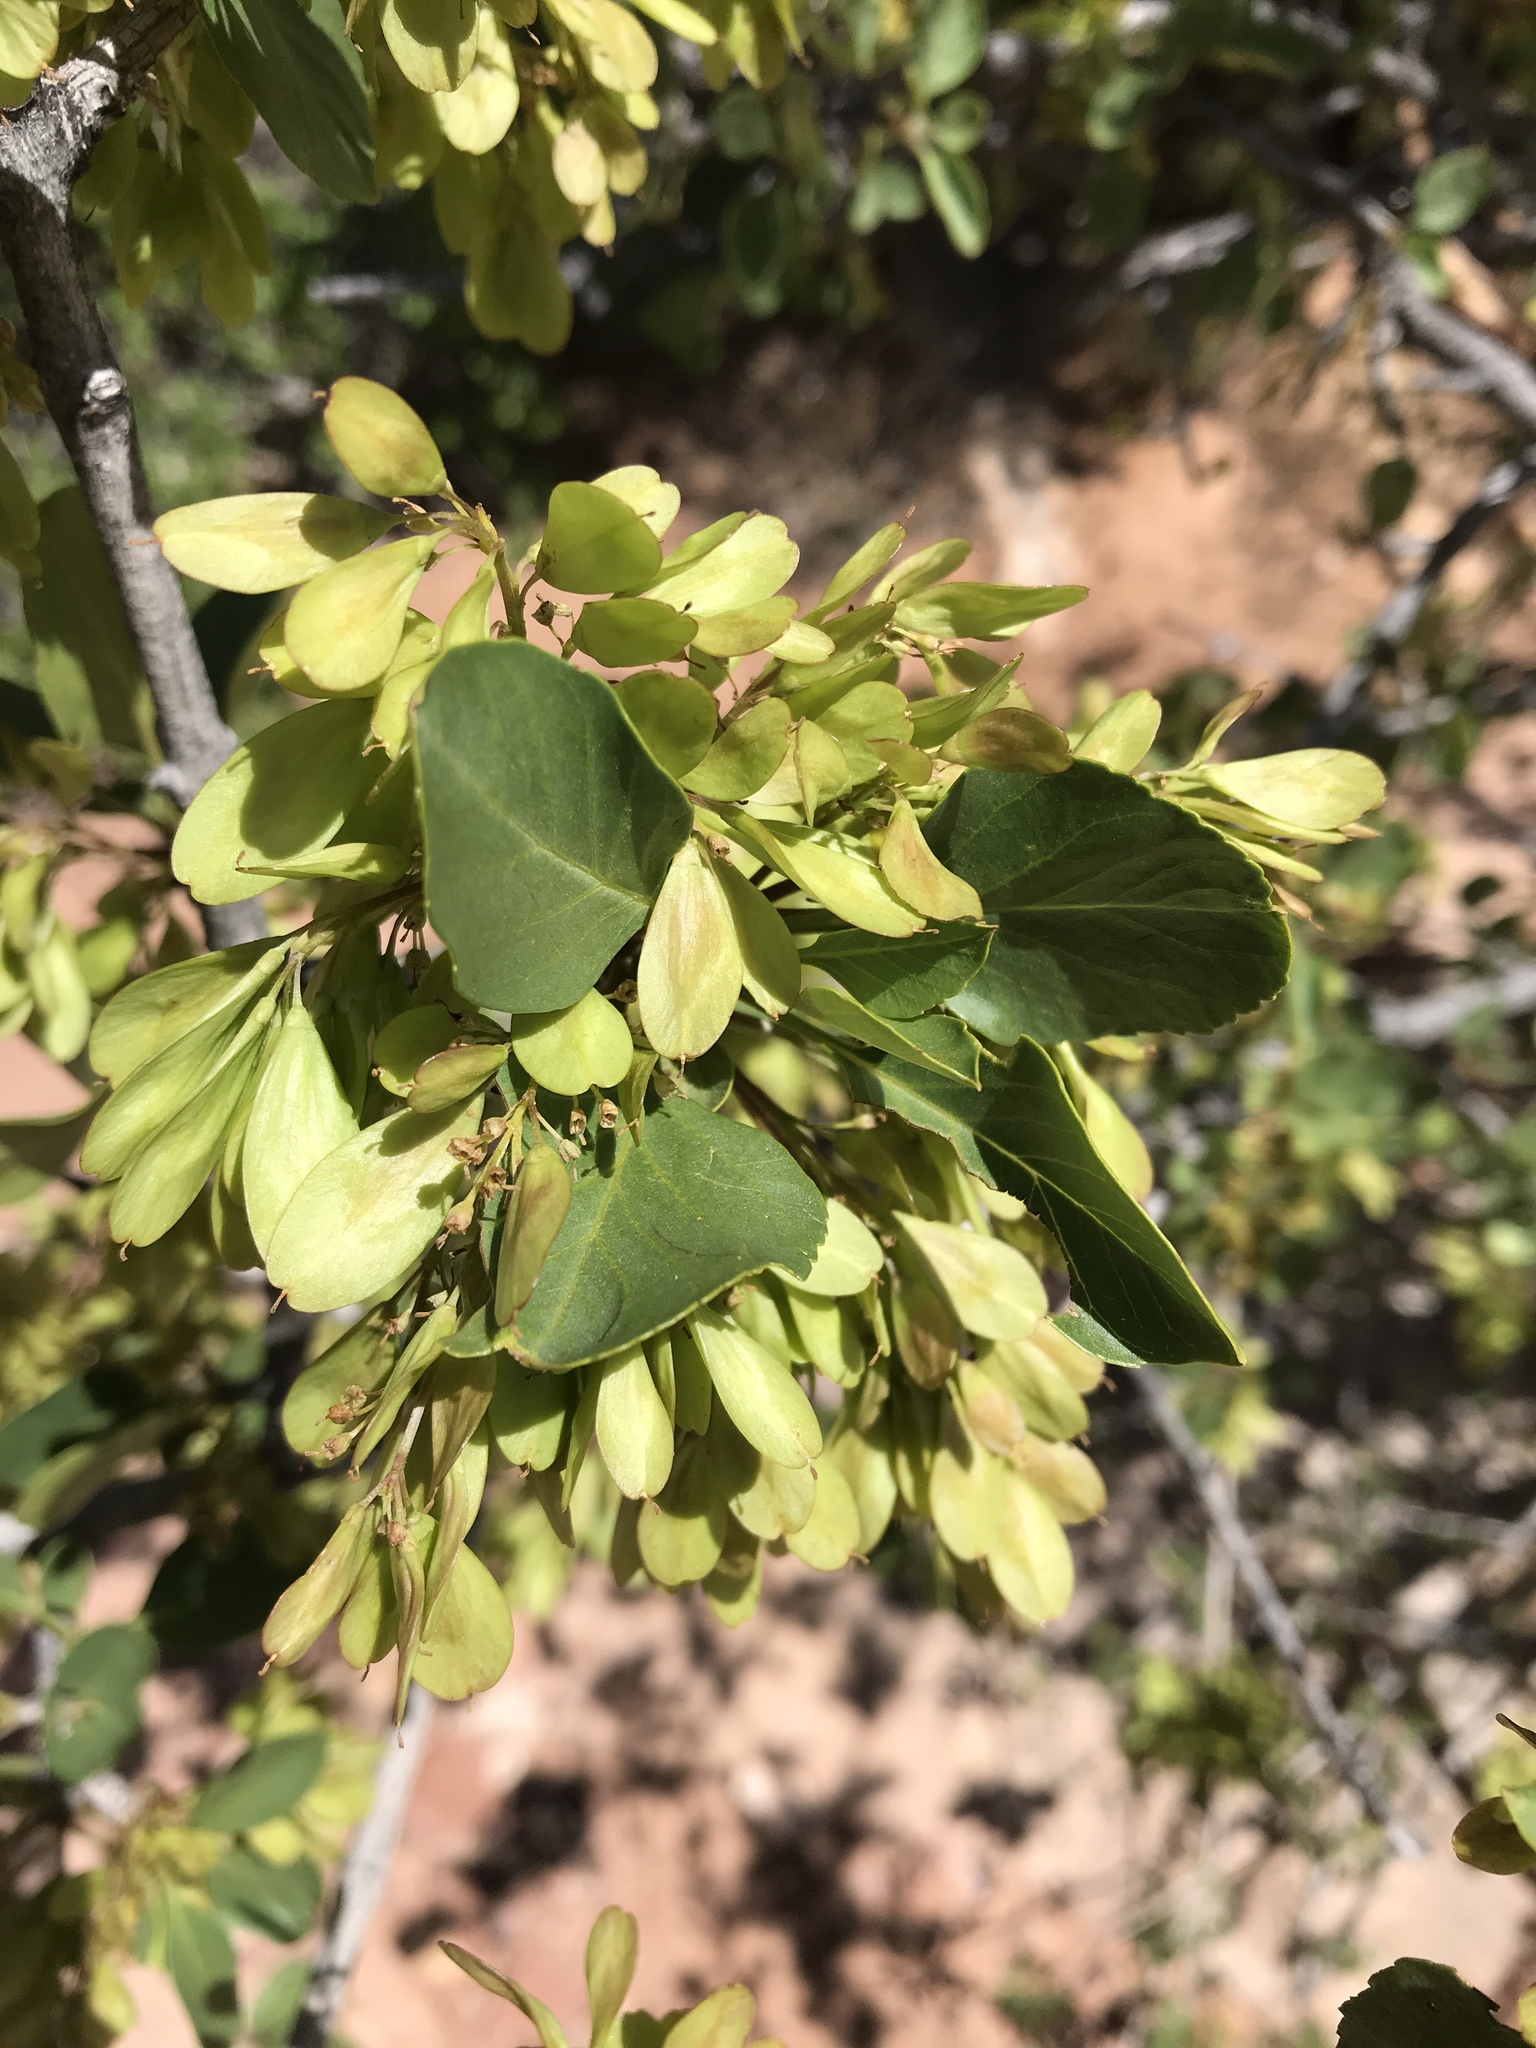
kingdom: Plantae
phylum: Tracheophyta
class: Magnoliopsida
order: Lamiales
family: Oleaceae
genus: Fraxinus
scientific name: Fraxinus anomala
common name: Utah ash
